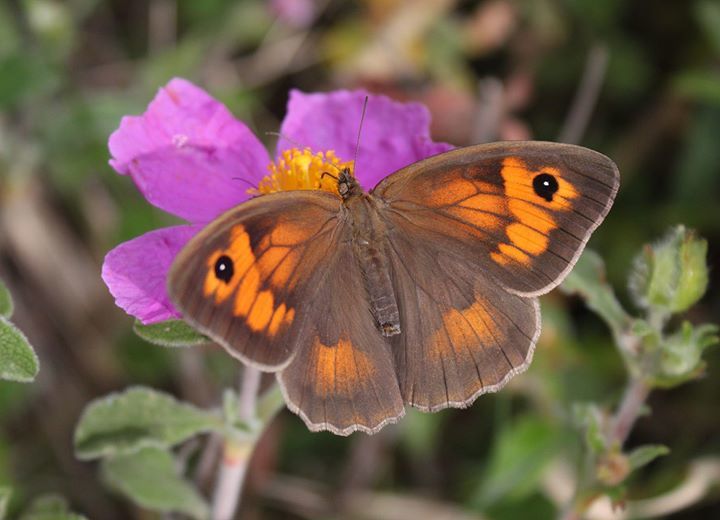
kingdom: Animalia
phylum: Arthropoda
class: Insecta
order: Lepidoptera
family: Nymphalidae
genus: Maniola
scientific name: Maniola jurtina
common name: Meadow brown
